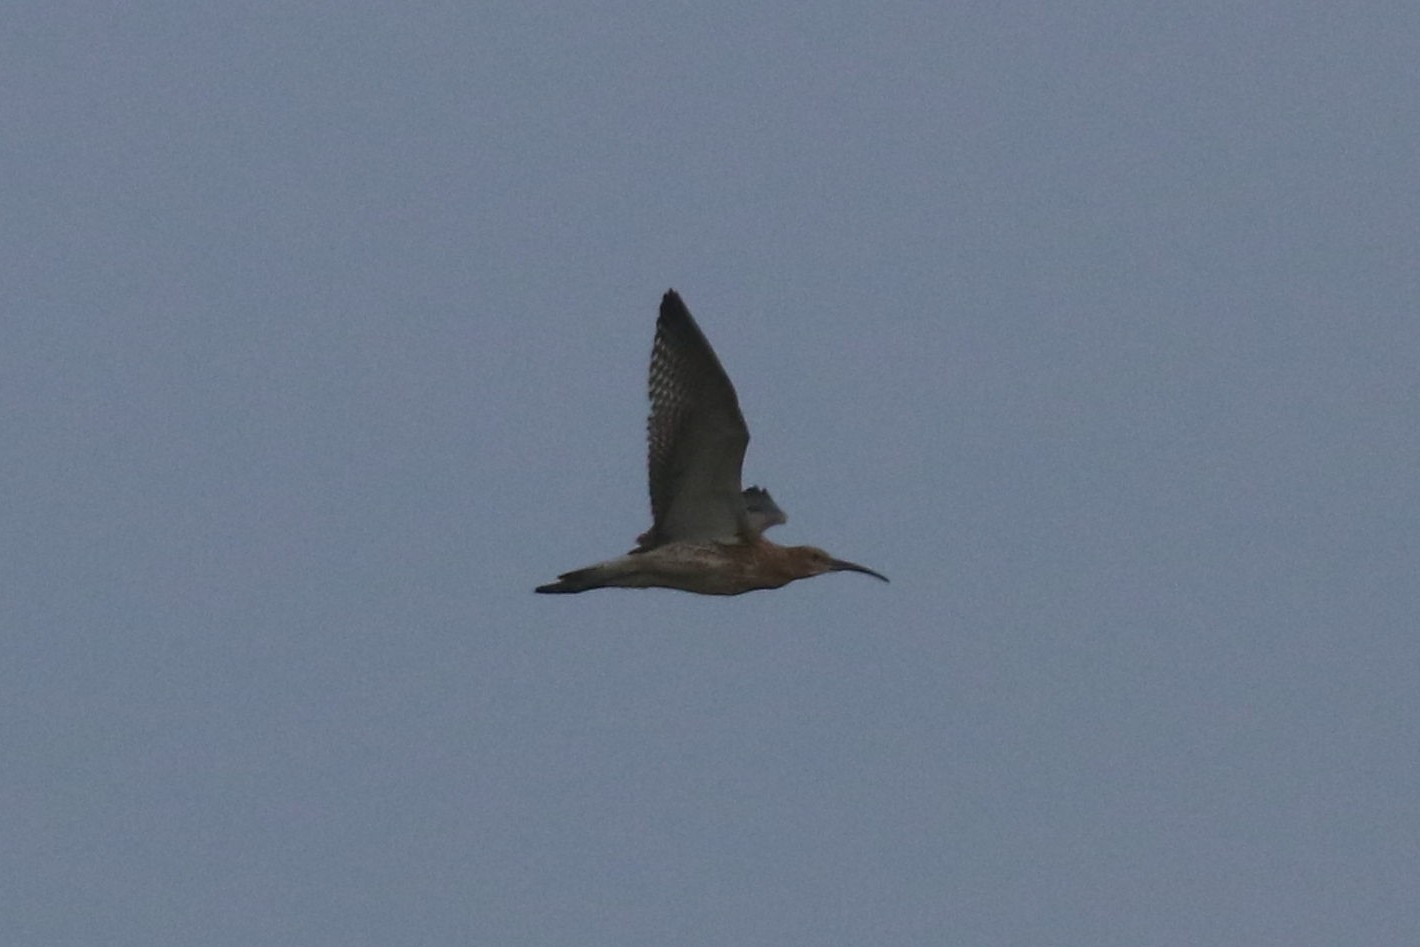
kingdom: Animalia
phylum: Chordata
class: Aves
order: Charadriiformes
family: Scolopacidae
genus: Numenius
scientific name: Numenius arquata
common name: Eurasian curlew
